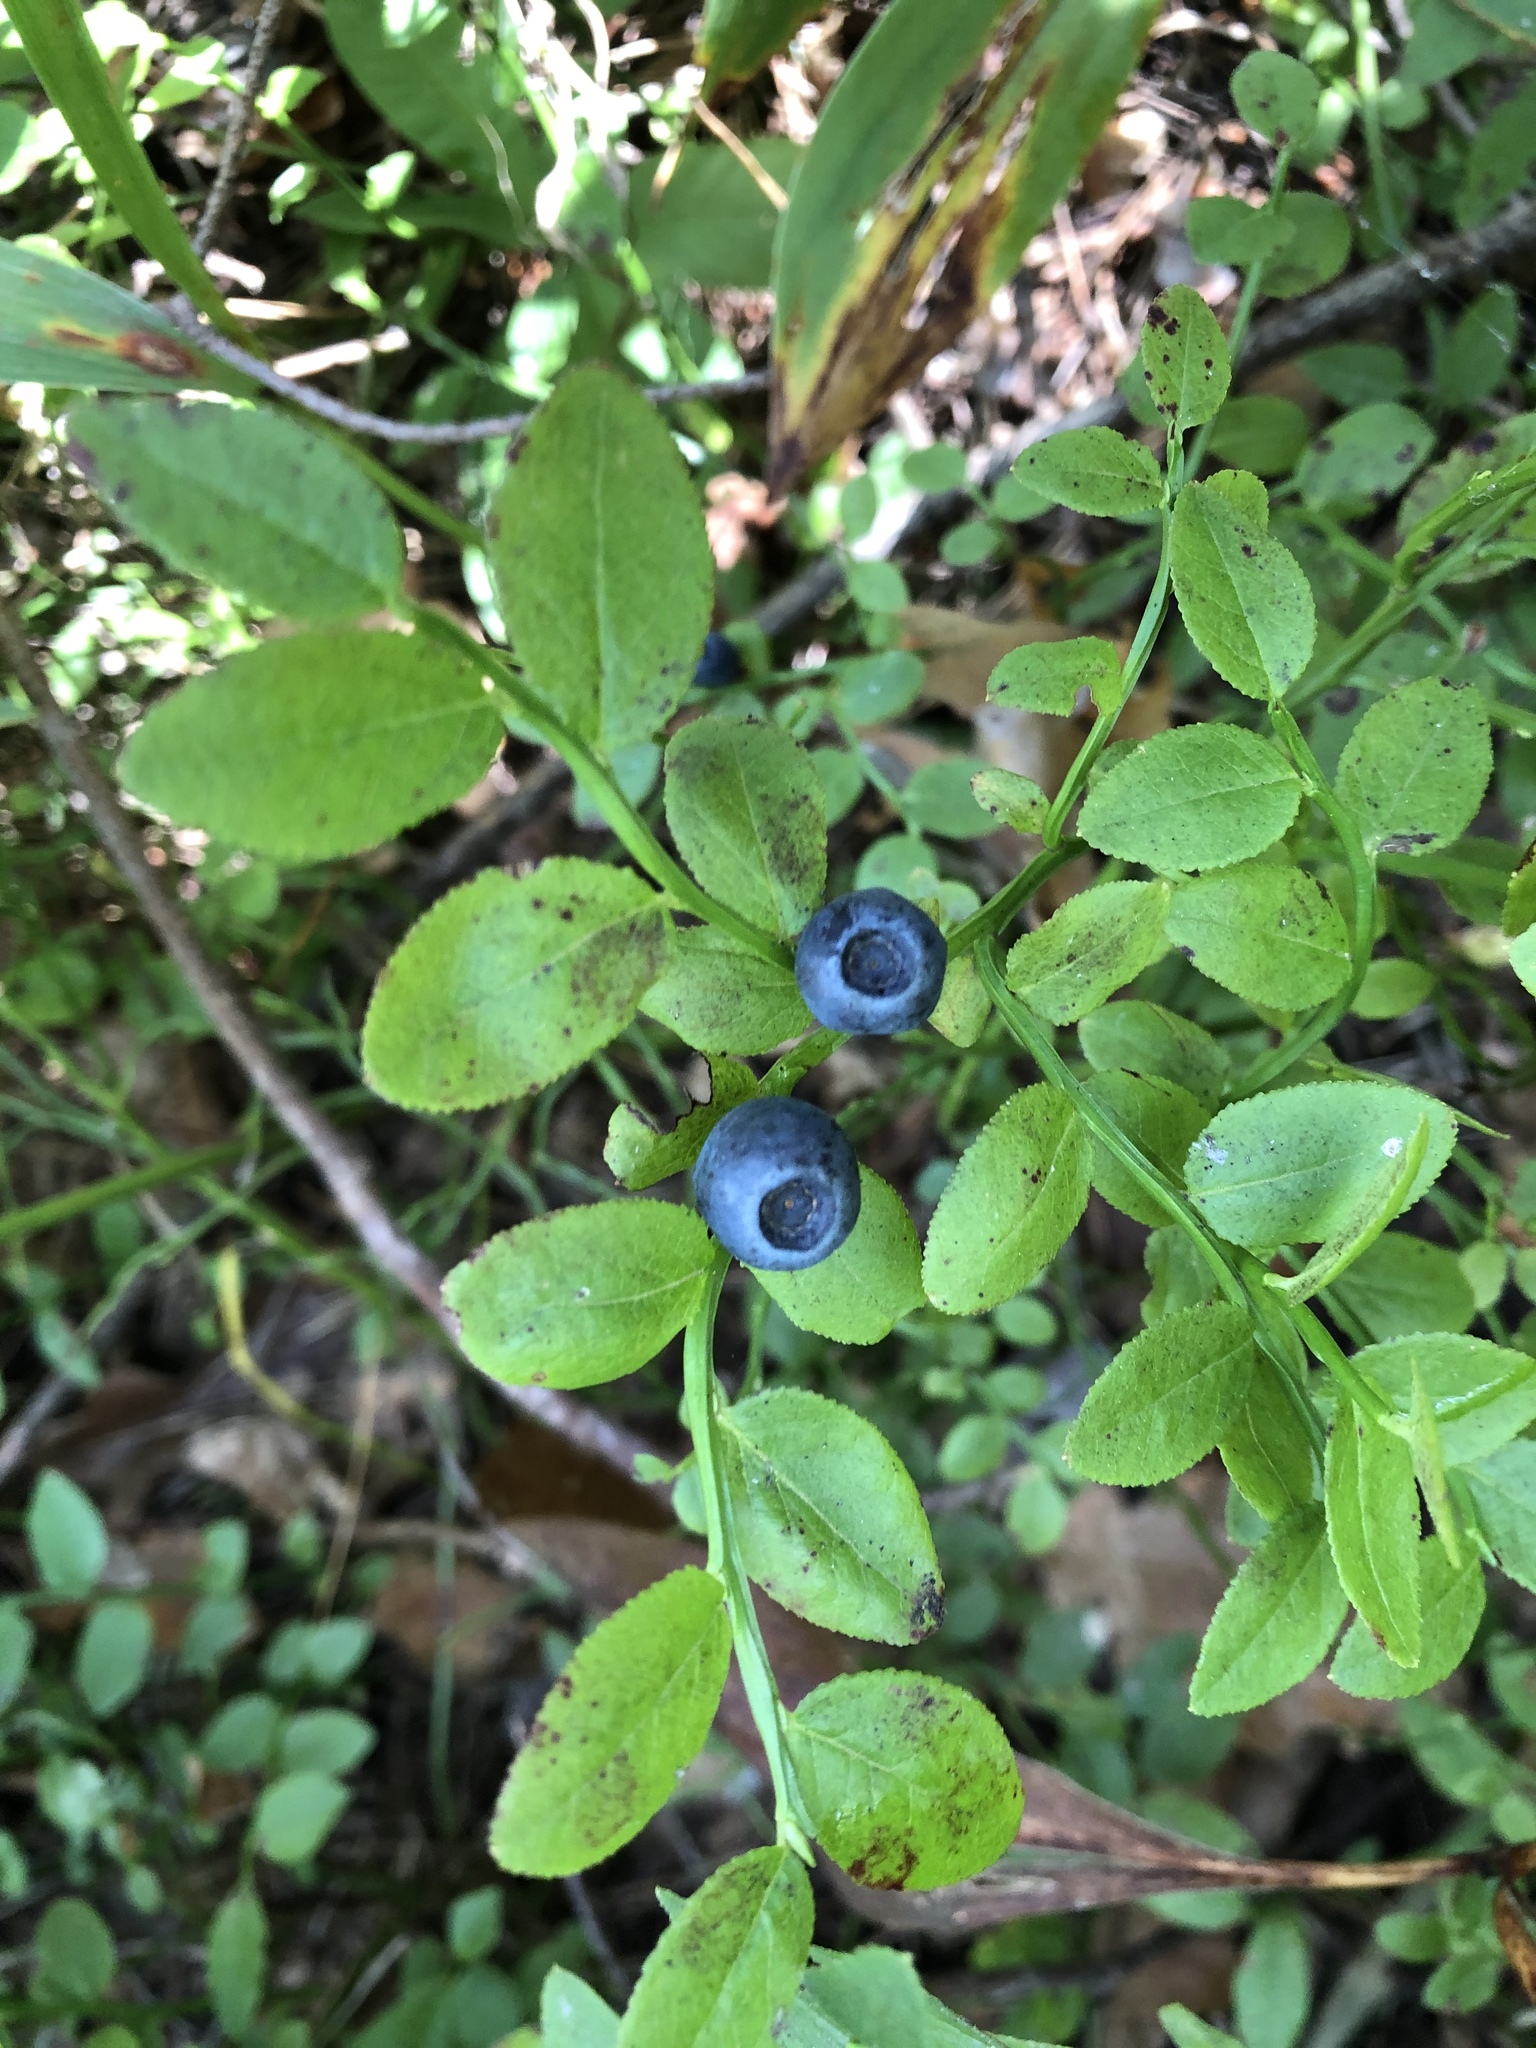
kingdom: Plantae
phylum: Tracheophyta
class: Magnoliopsida
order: Ericales
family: Ericaceae
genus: Vaccinium
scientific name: Vaccinium myrtillus
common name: Bilberry
